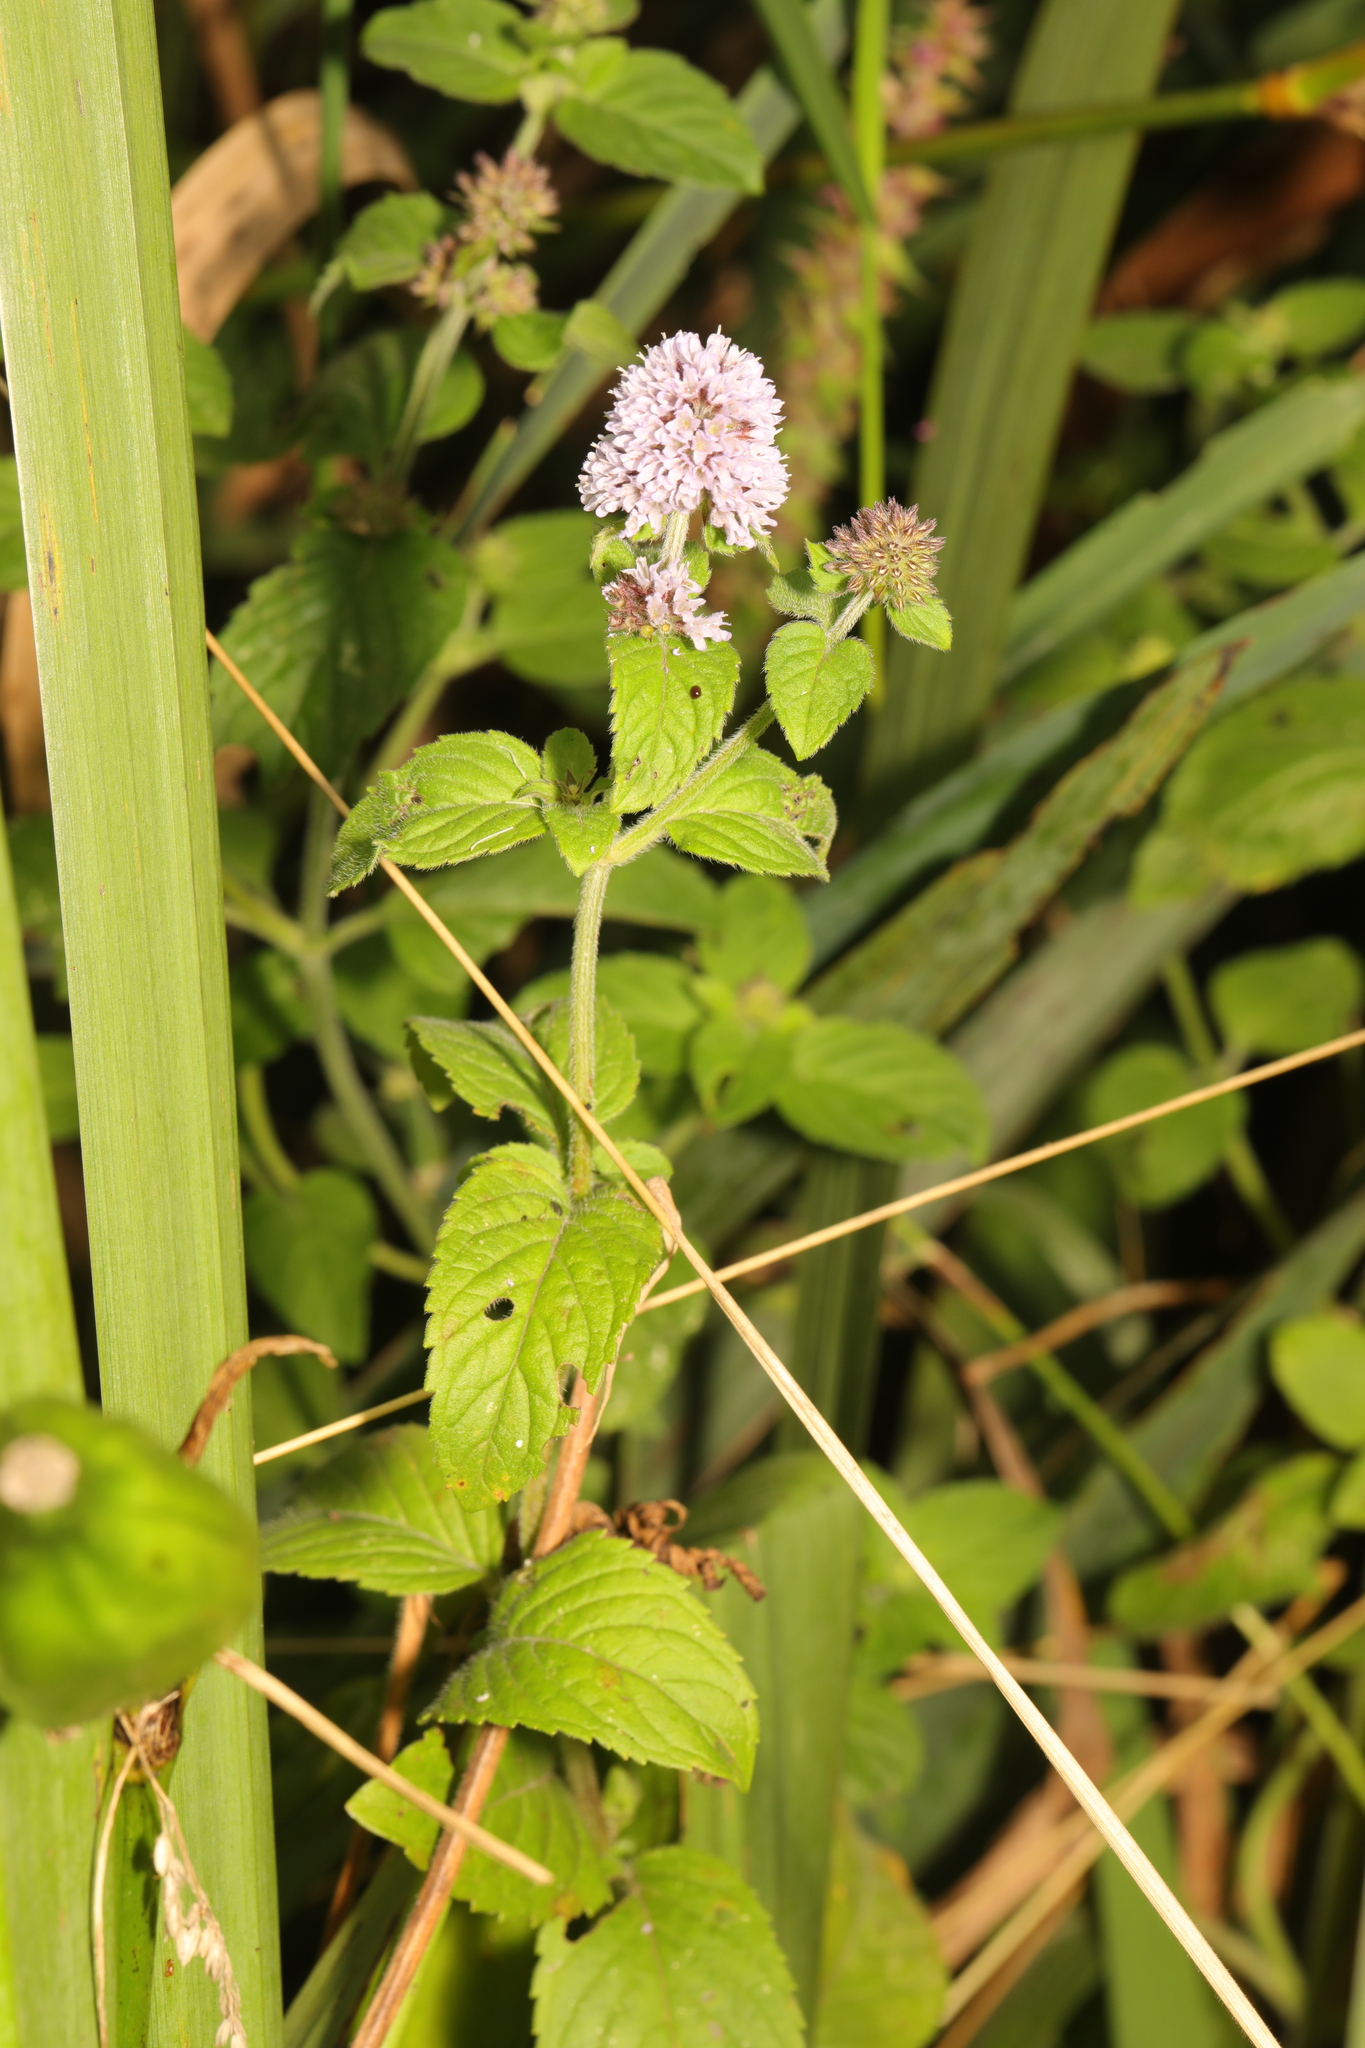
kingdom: Plantae
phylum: Tracheophyta
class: Magnoliopsida
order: Lamiales
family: Lamiaceae
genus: Mentha
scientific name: Mentha aquatica
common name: Water mint
